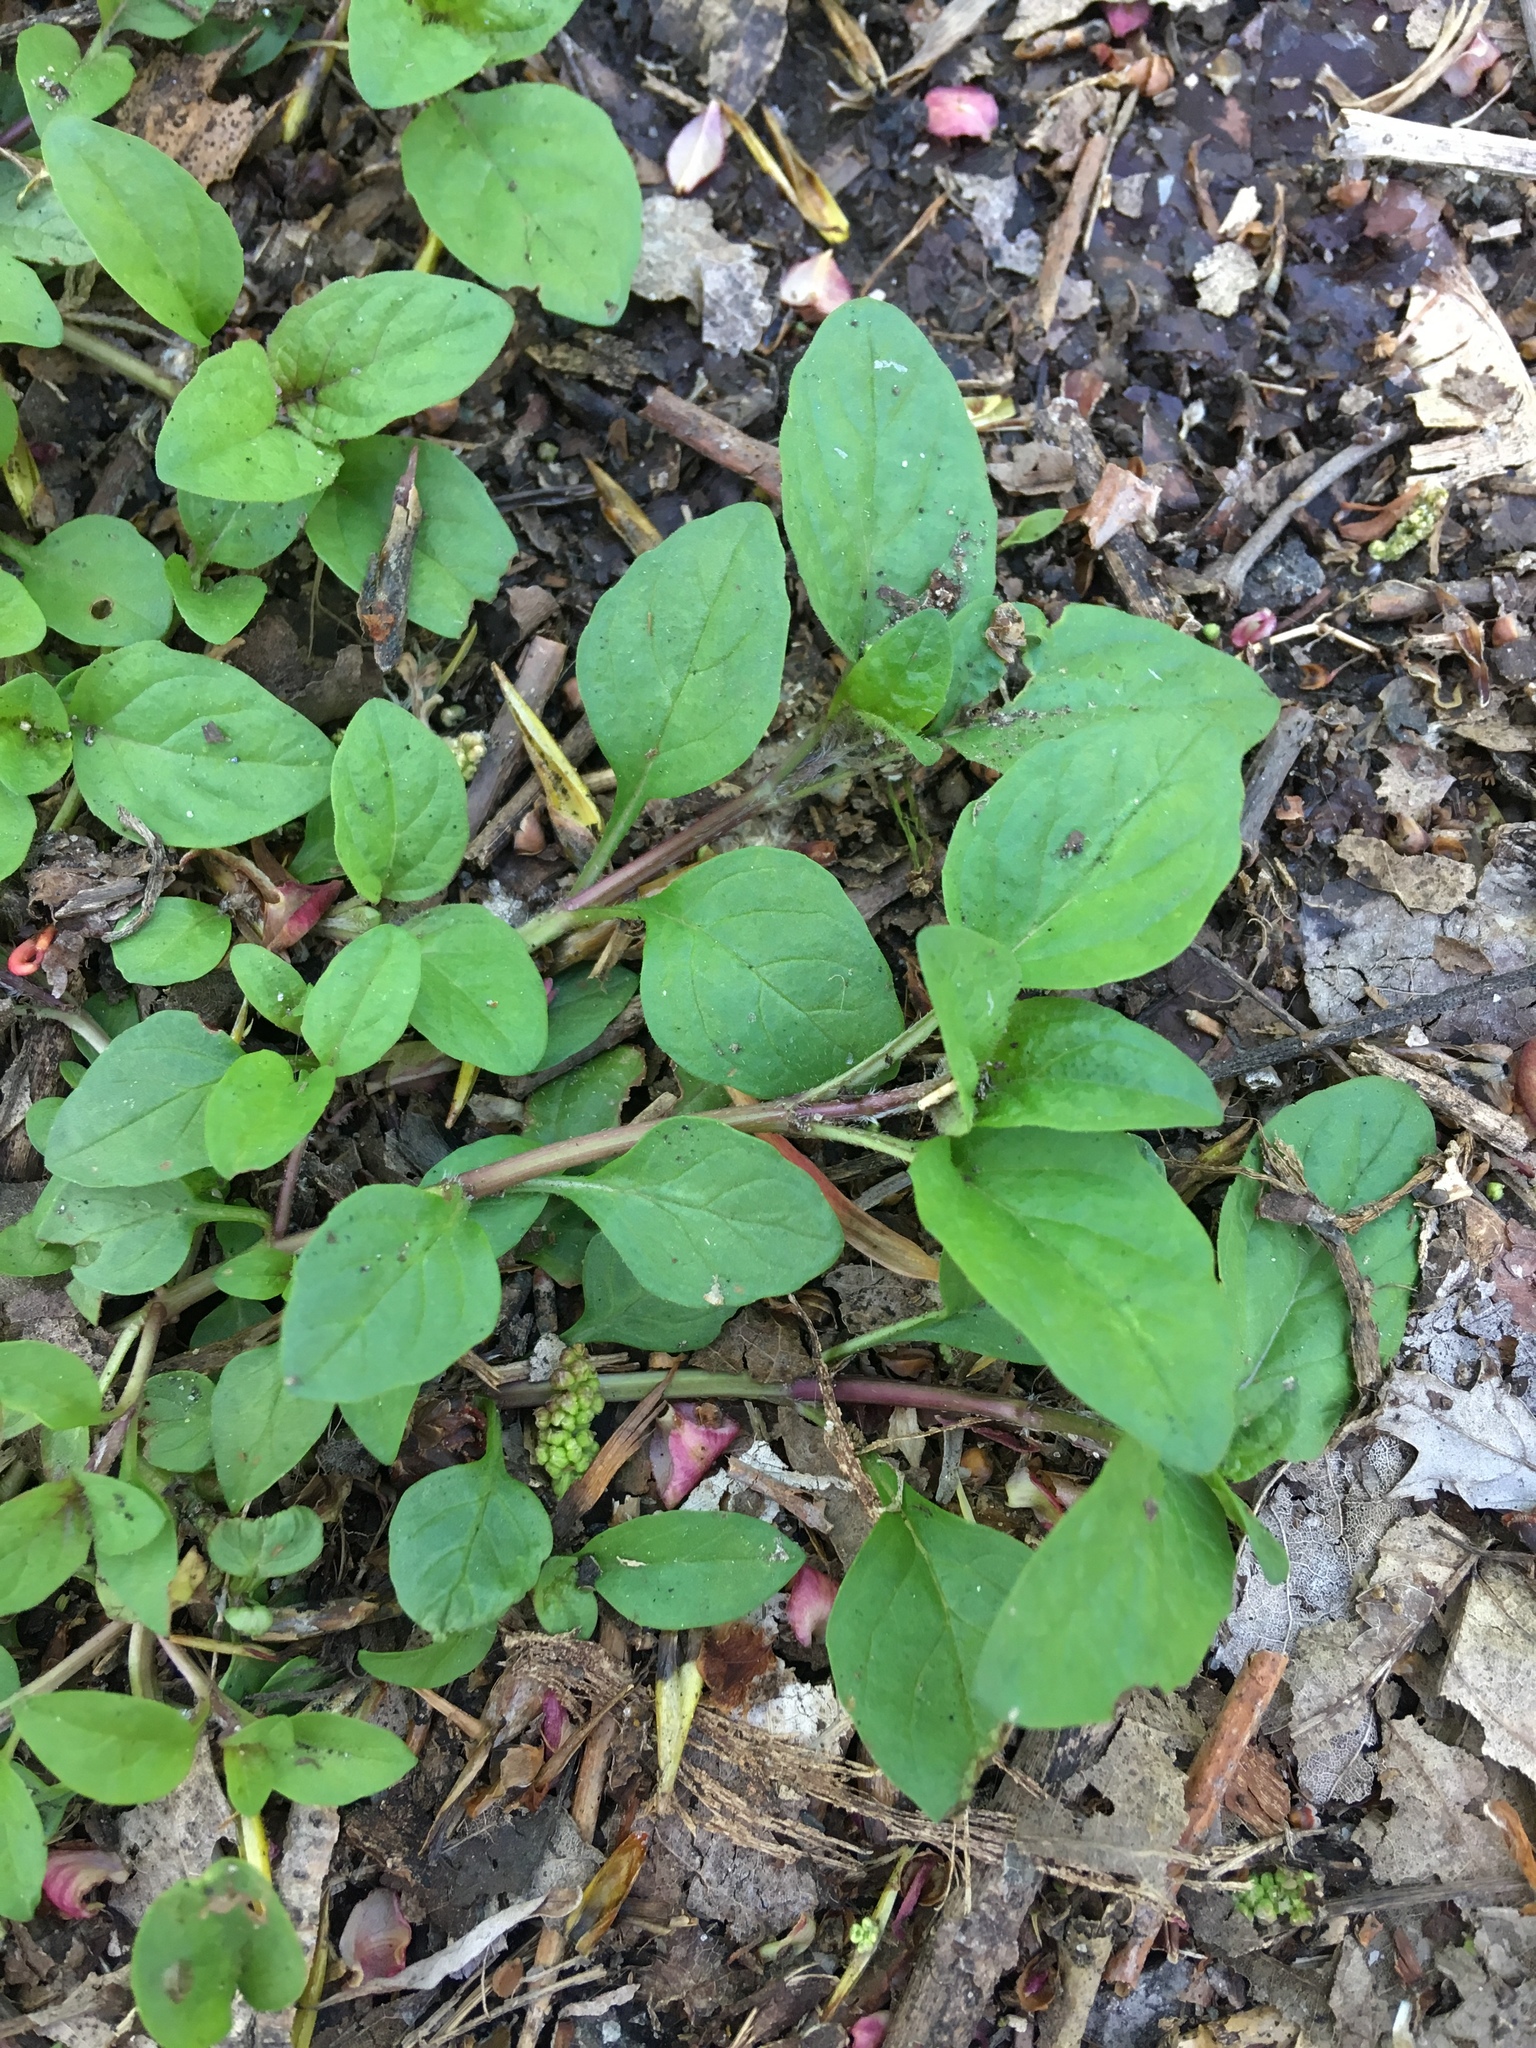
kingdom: Plantae
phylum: Tracheophyta
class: Magnoliopsida
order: Lamiales
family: Lamiaceae
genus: Prunella
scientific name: Prunella vulgaris
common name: Heal-all
